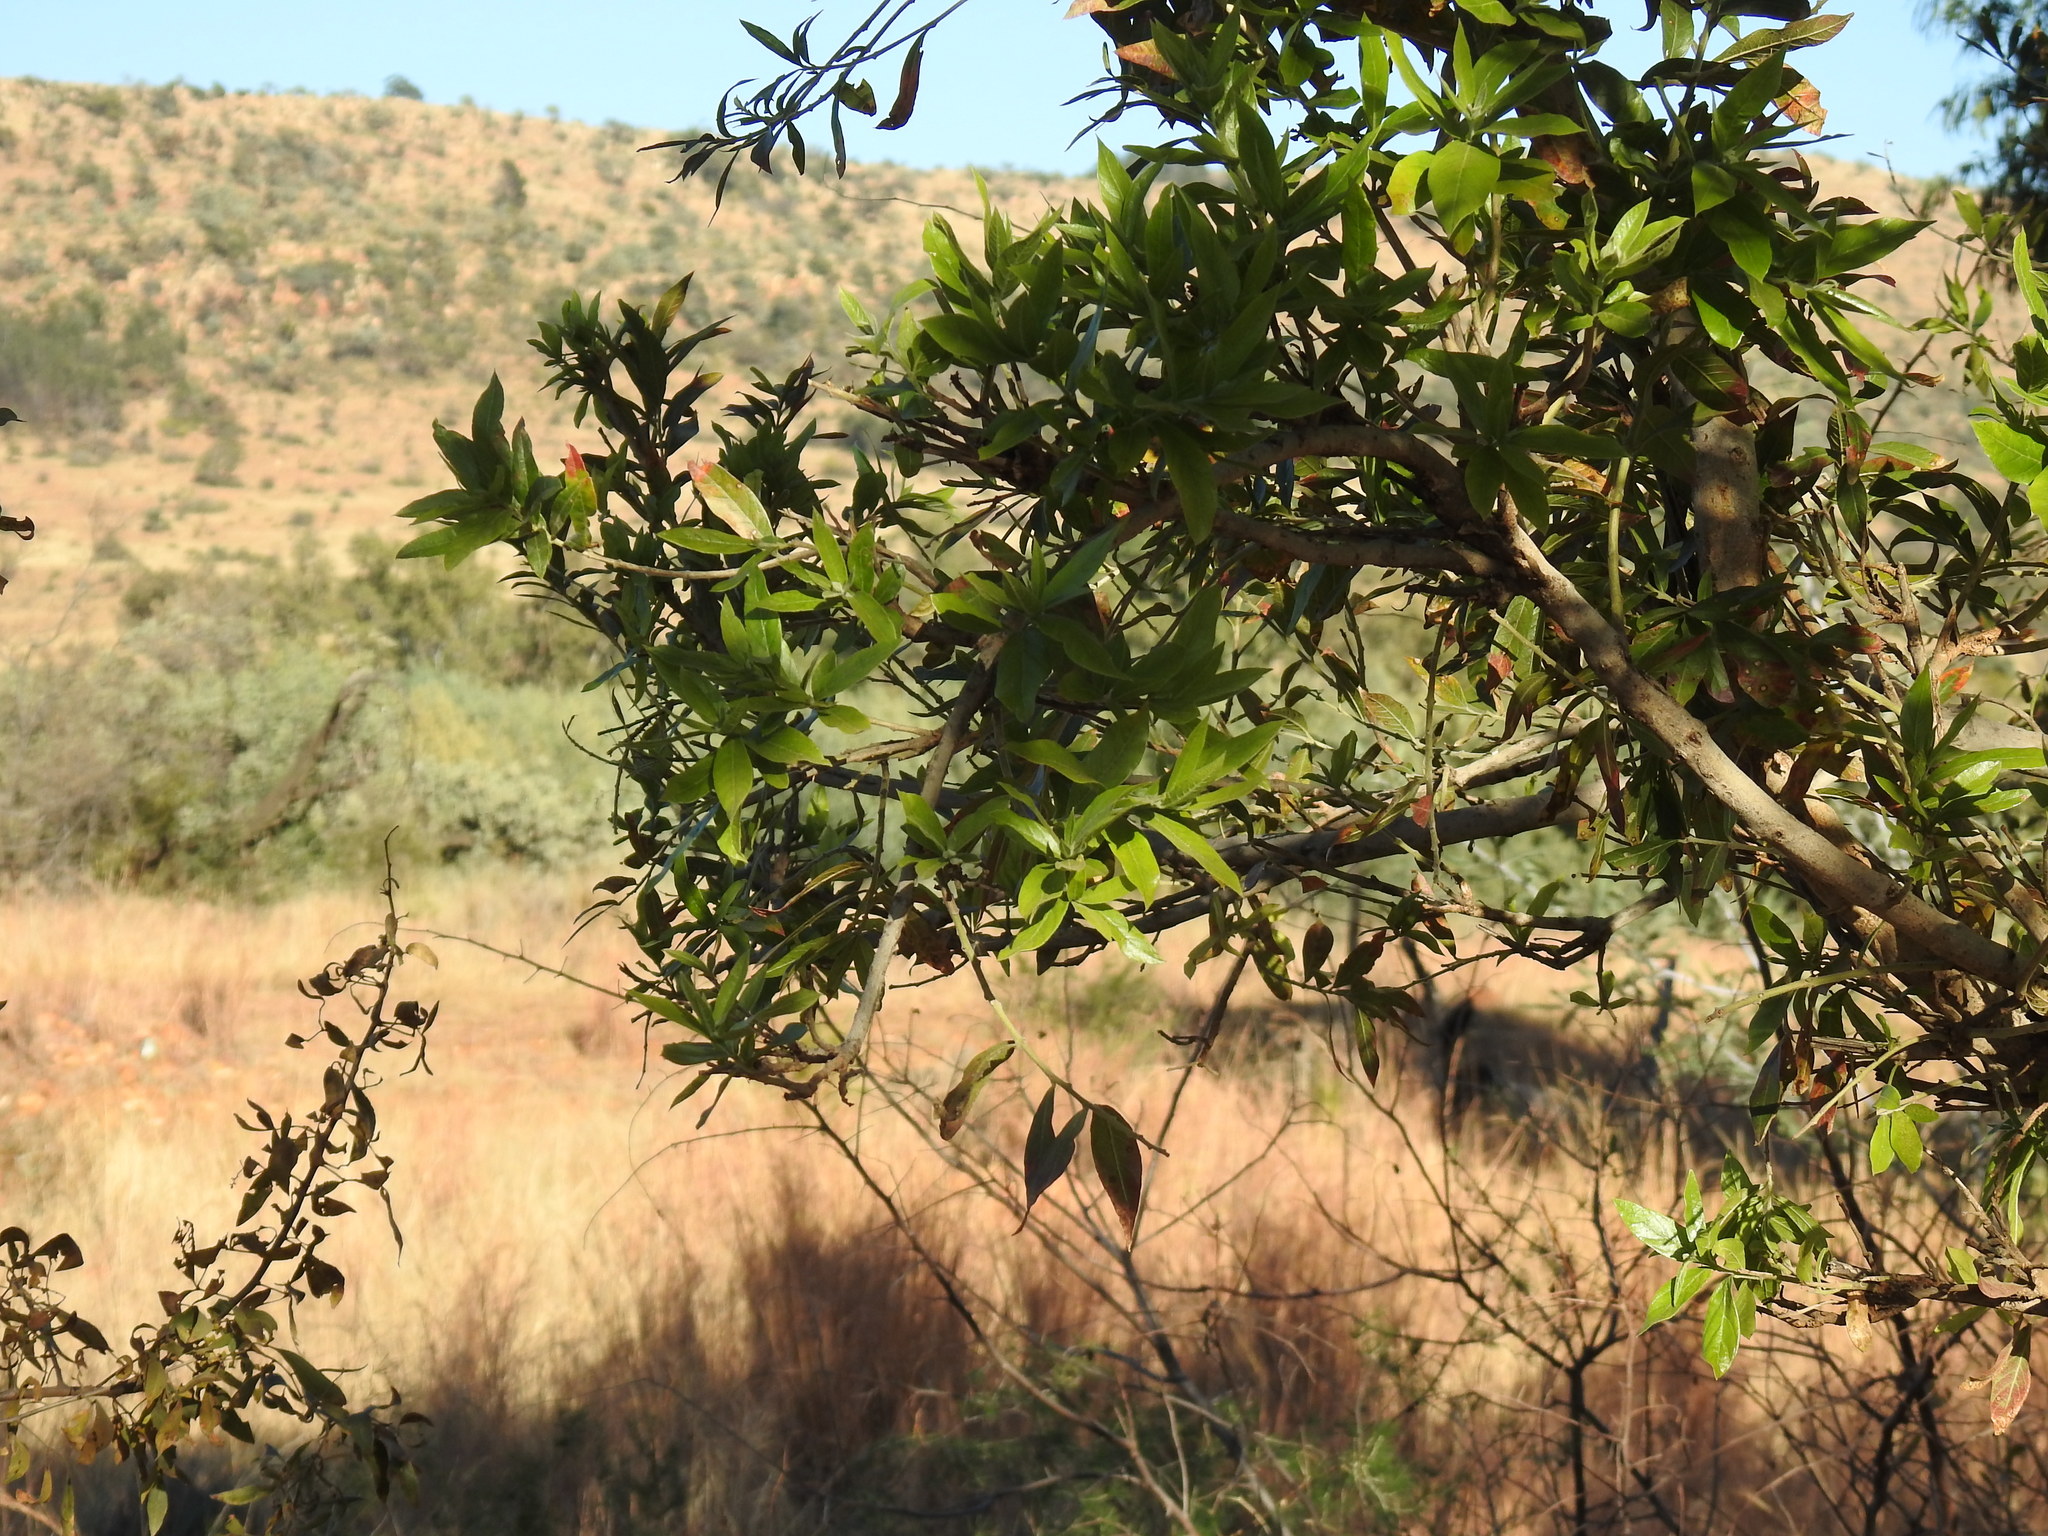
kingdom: Plantae
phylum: Tracheophyta
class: Magnoliopsida
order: Myrtales
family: Combretaceae
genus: Combretum
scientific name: Combretum erythrophyllum
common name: Bush-willow
